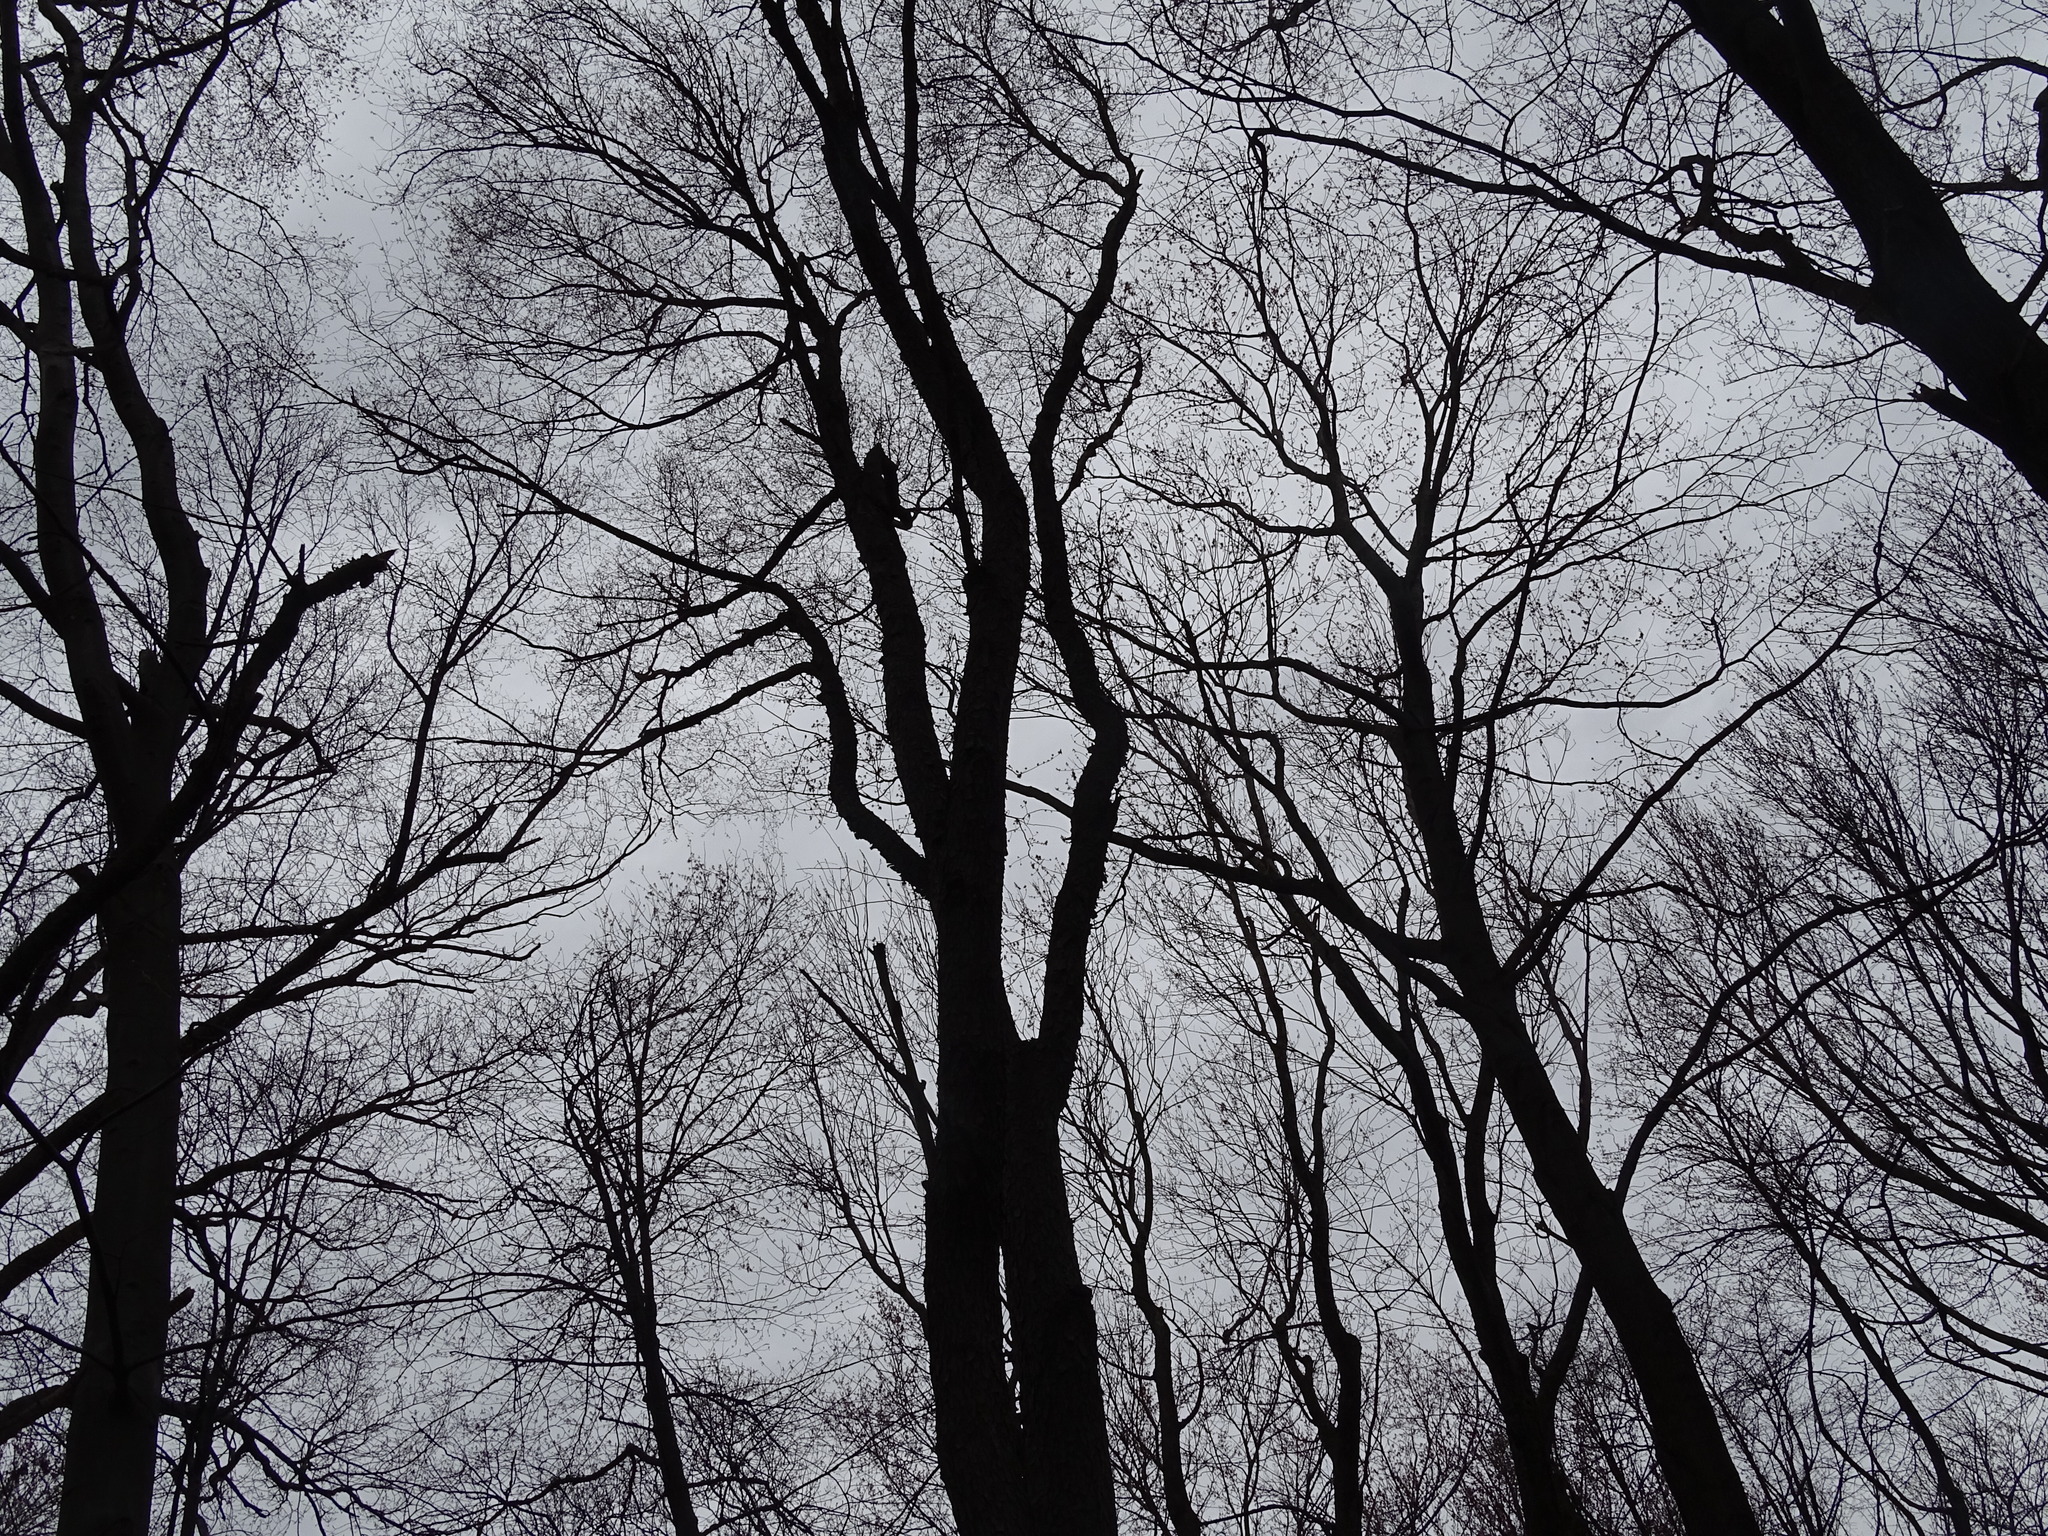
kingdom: Plantae
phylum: Tracheophyta
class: Magnoliopsida
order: Rosales
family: Rosaceae
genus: Prunus
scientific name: Prunus serotina
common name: Black cherry
